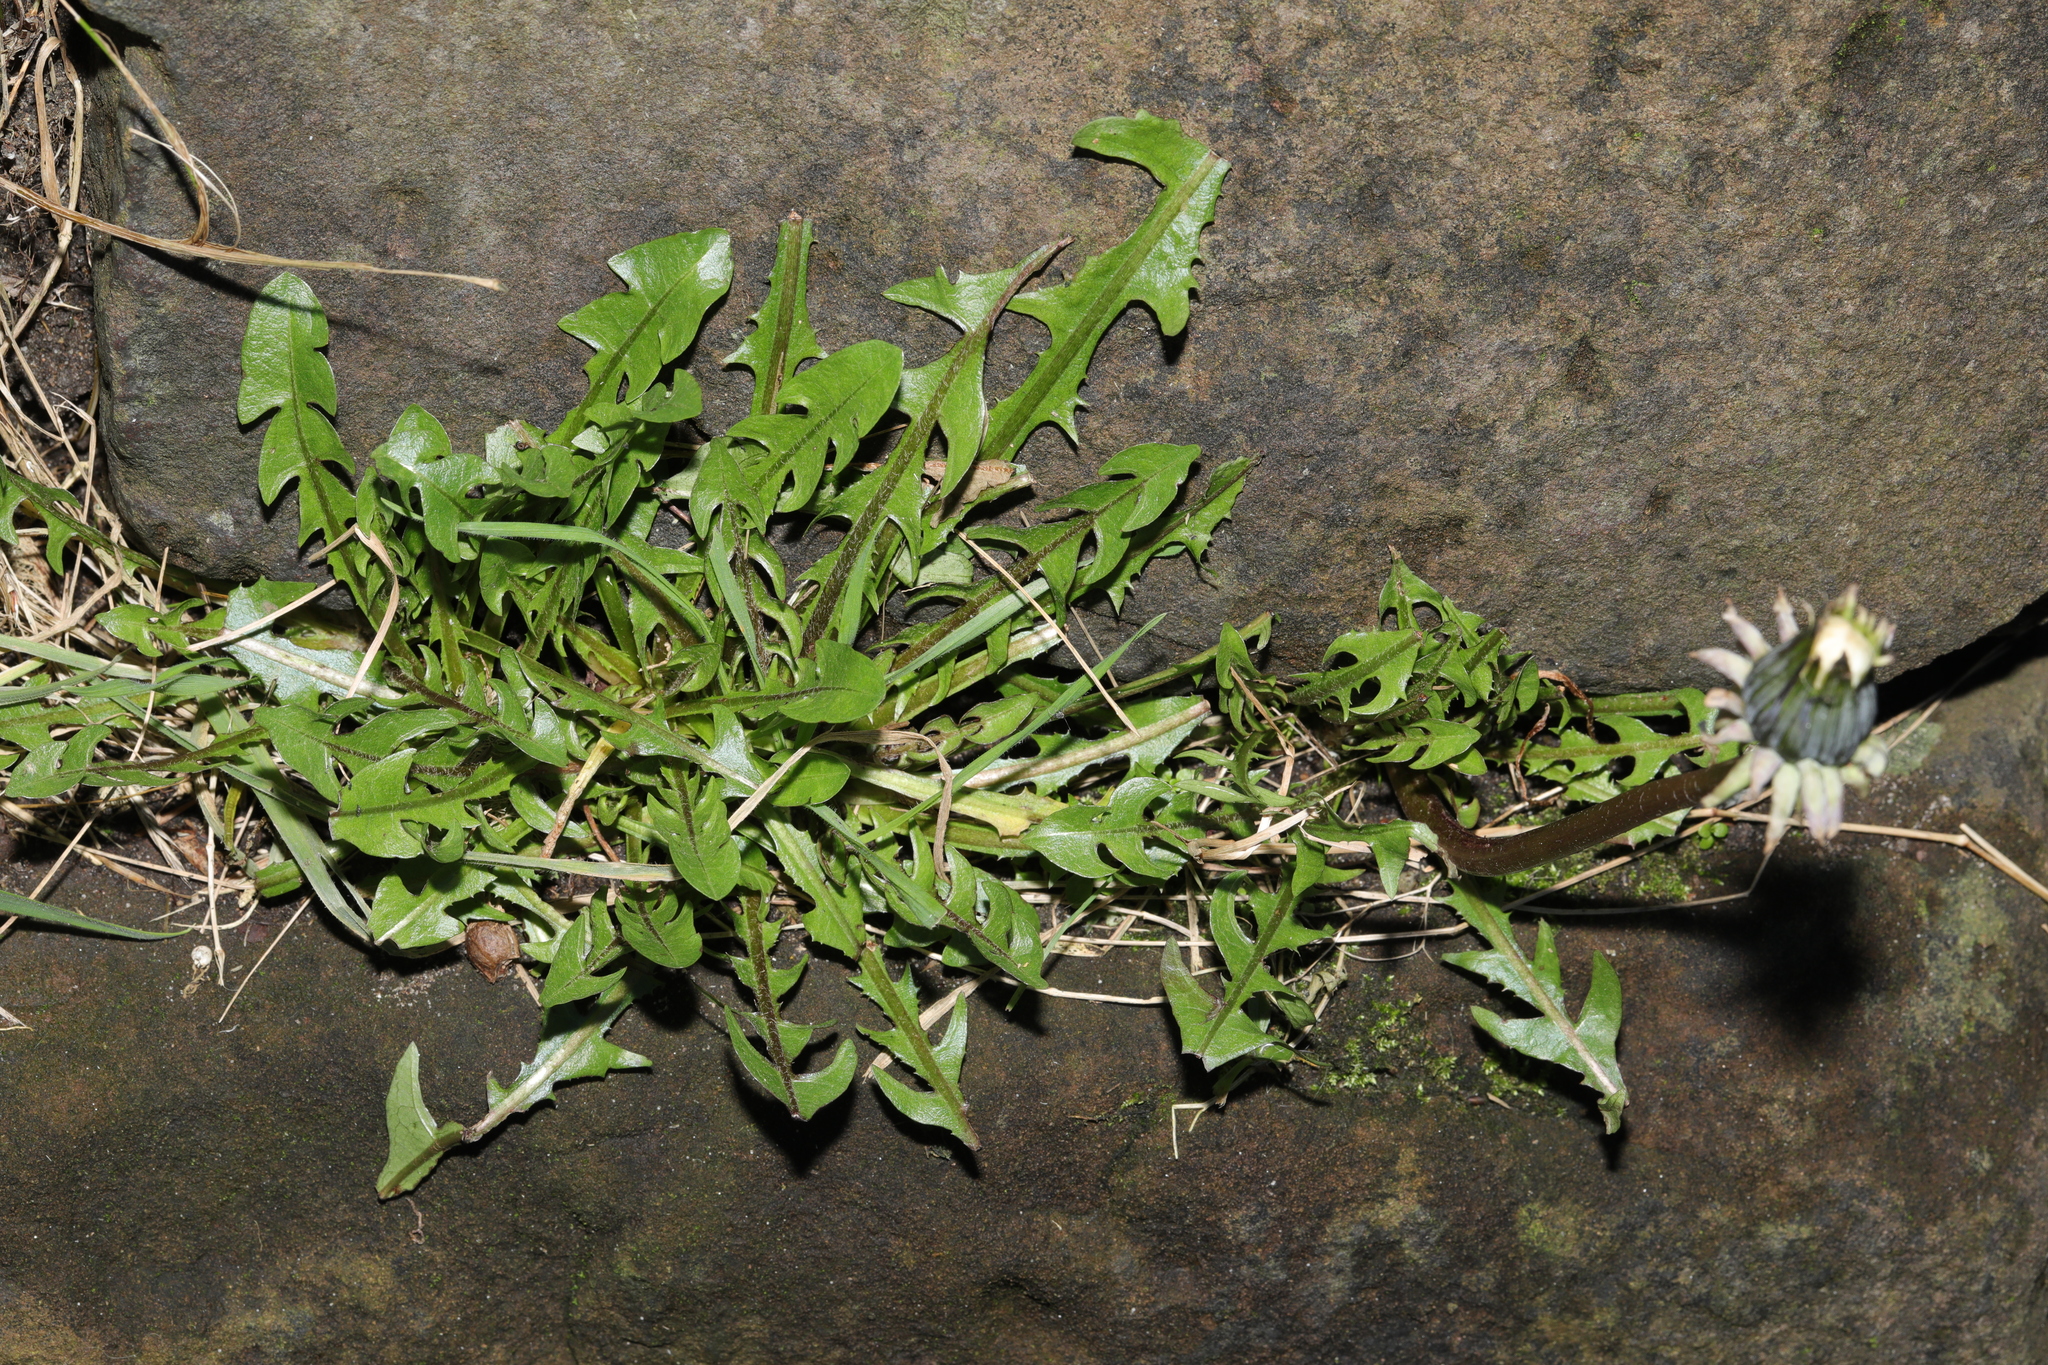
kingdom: Plantae
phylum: Tracheophyta
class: Magnoliopsida
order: Asterales
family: Asteraceae
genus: Taraxacum
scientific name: Taraxacum officinale
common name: Common dandelion
